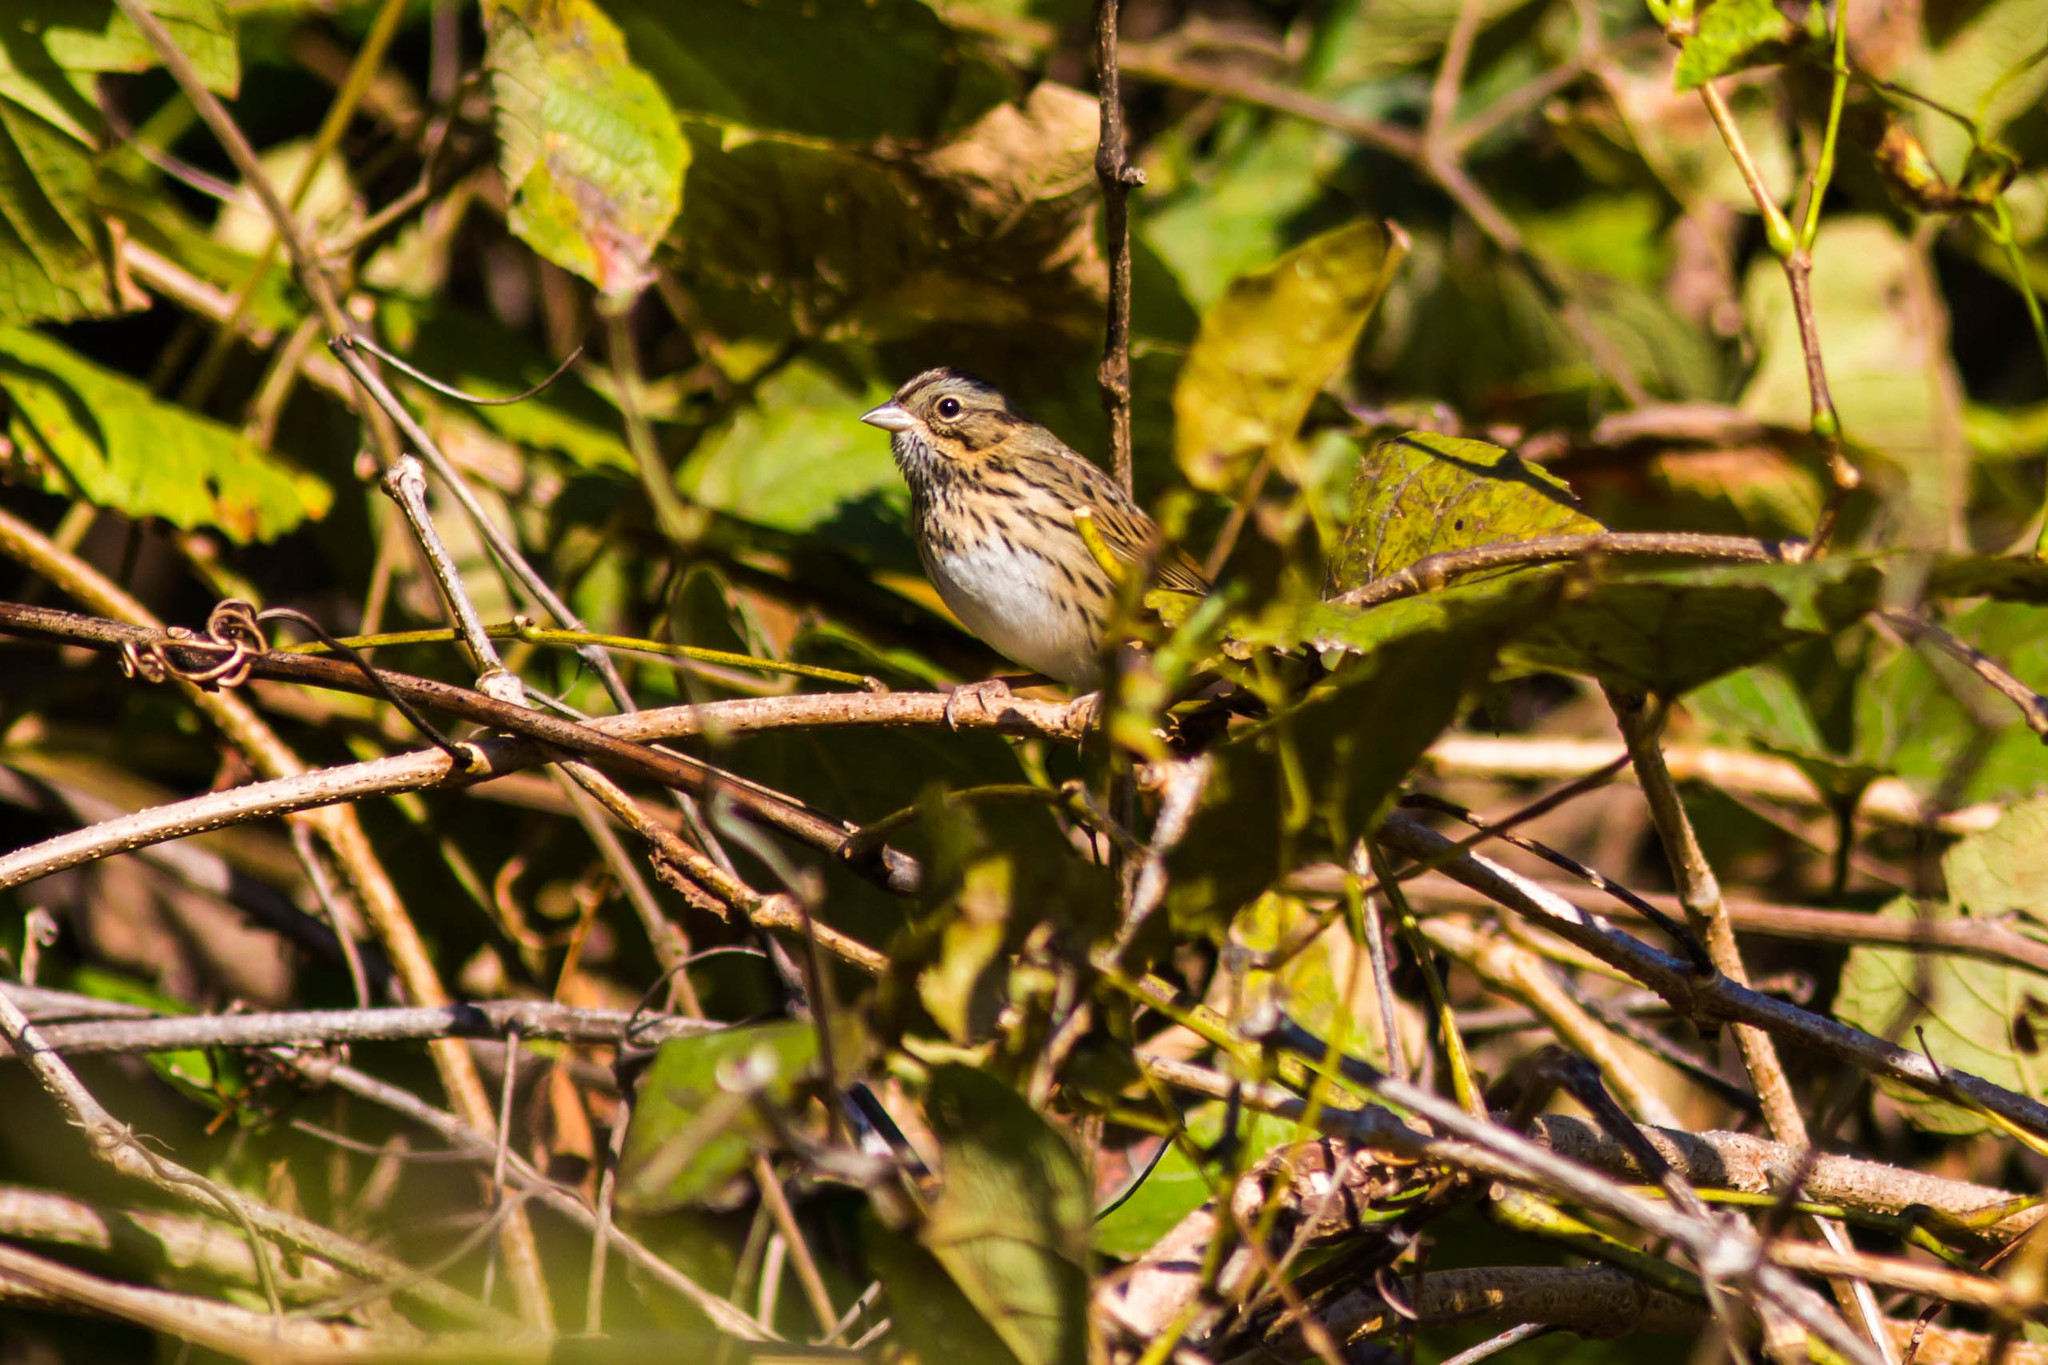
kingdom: Animalia
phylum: Chordata
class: Aves
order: Passeriformes
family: Passerellidae
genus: Melospiza
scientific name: Melospiza lincolnii
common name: Lincoln's sparrow
